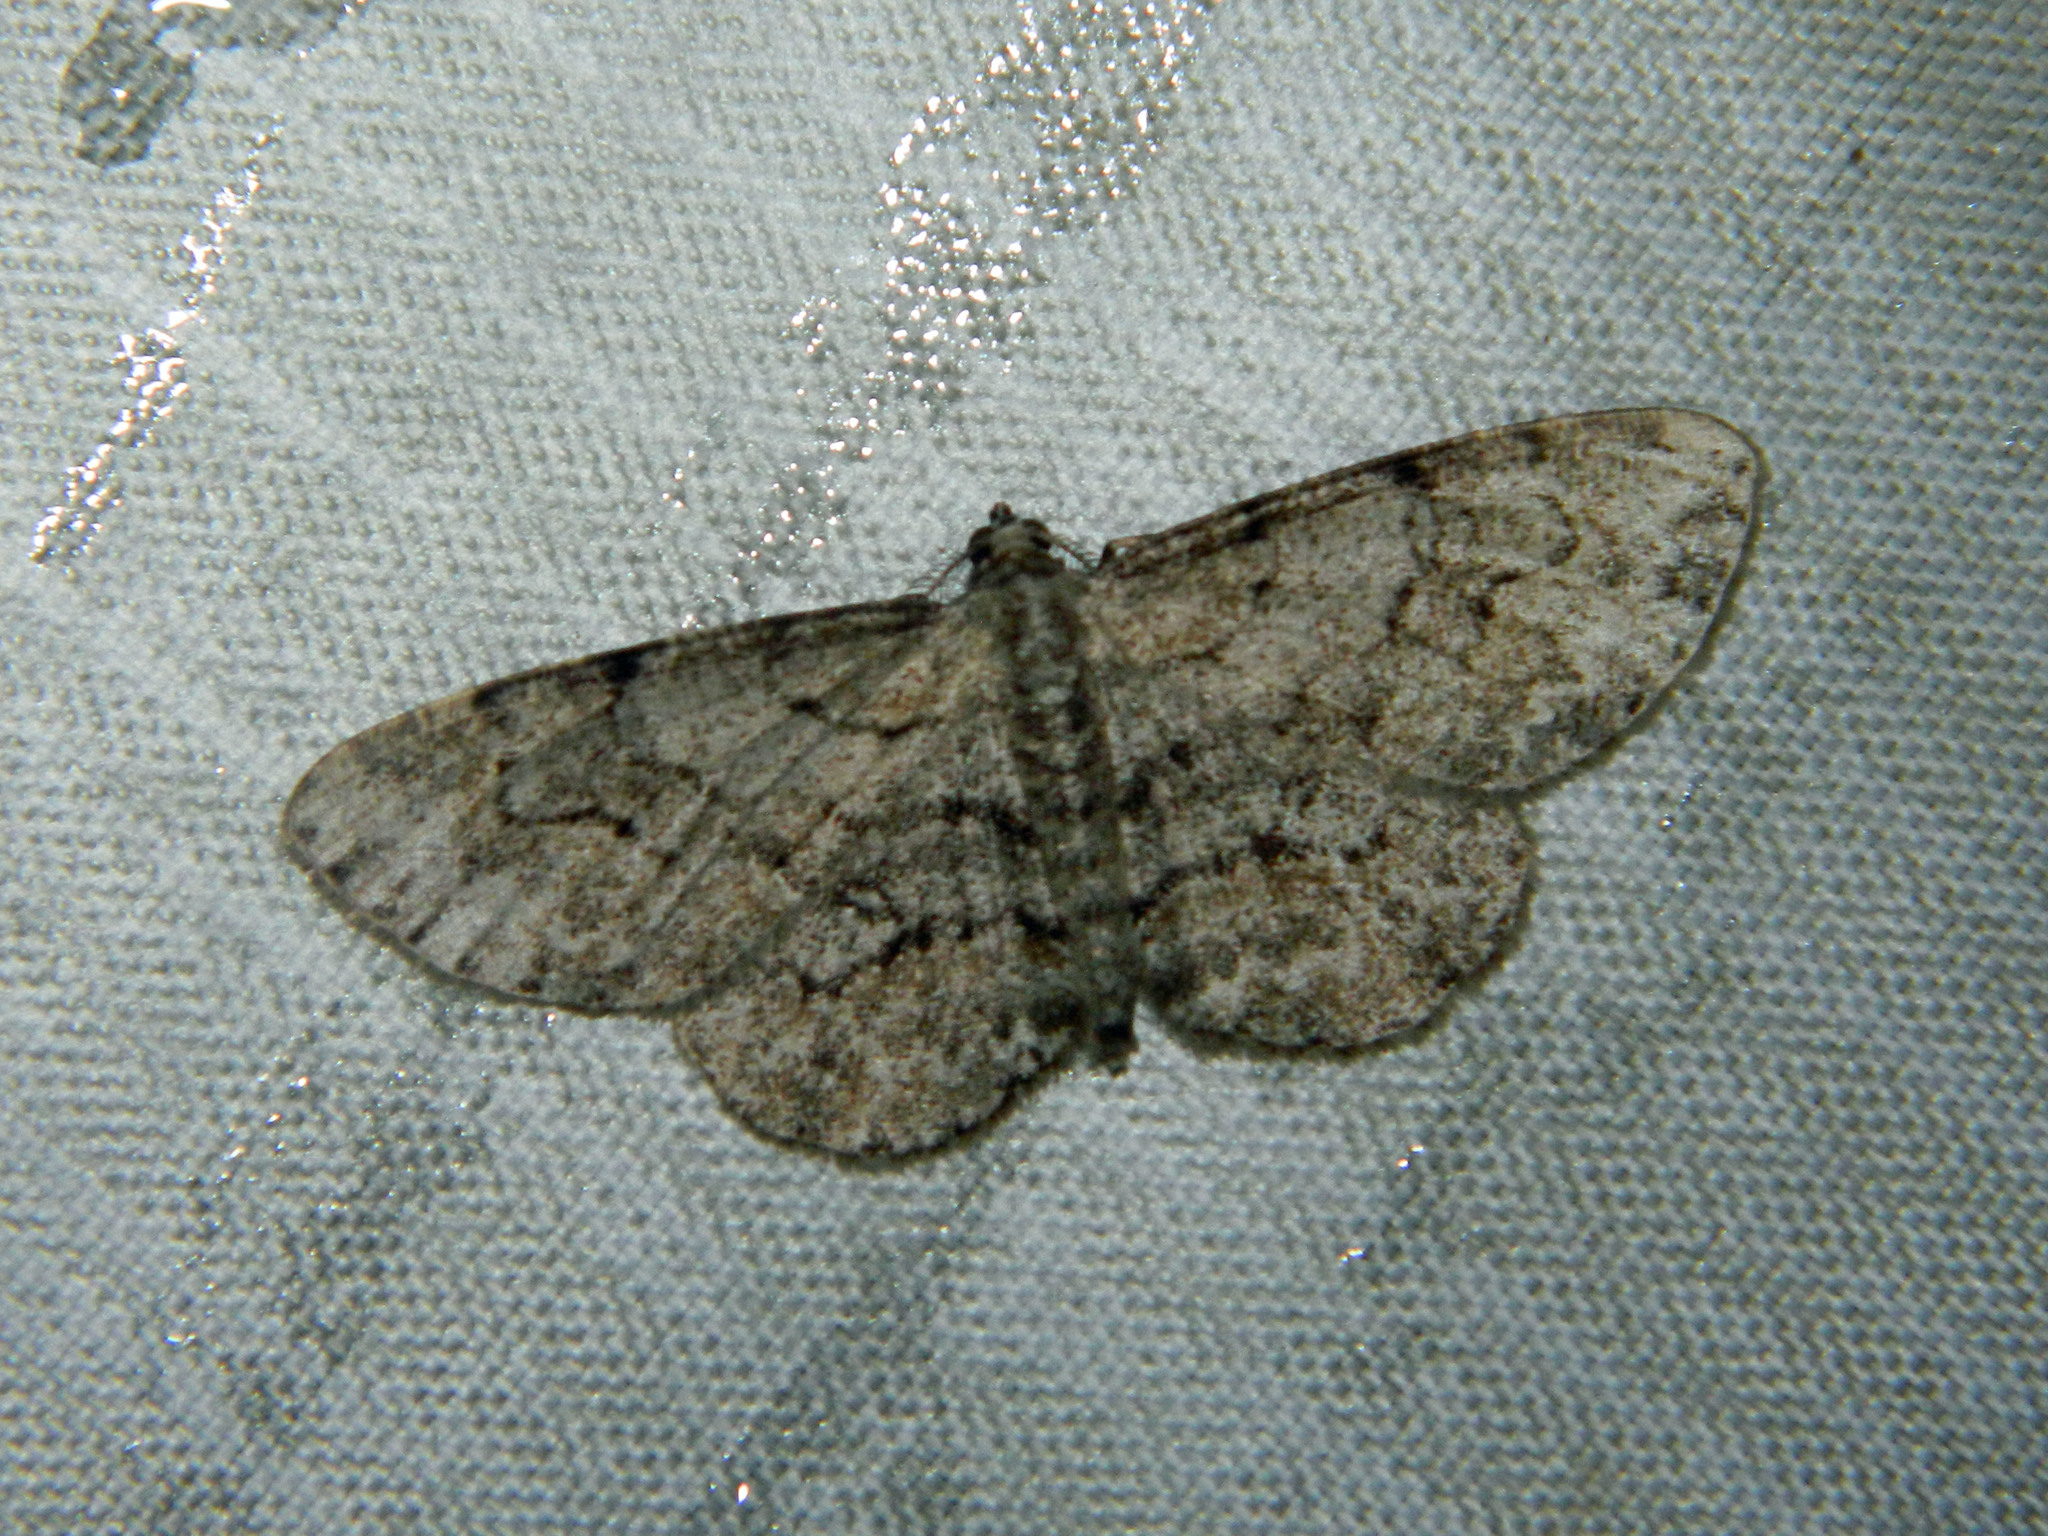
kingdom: Animalia
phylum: Arthropoda
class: Insecta
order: Lepidoptera
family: Geometridae
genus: Iridopsis
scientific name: Iridopsis ephyraria
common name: Pale-winged gray
